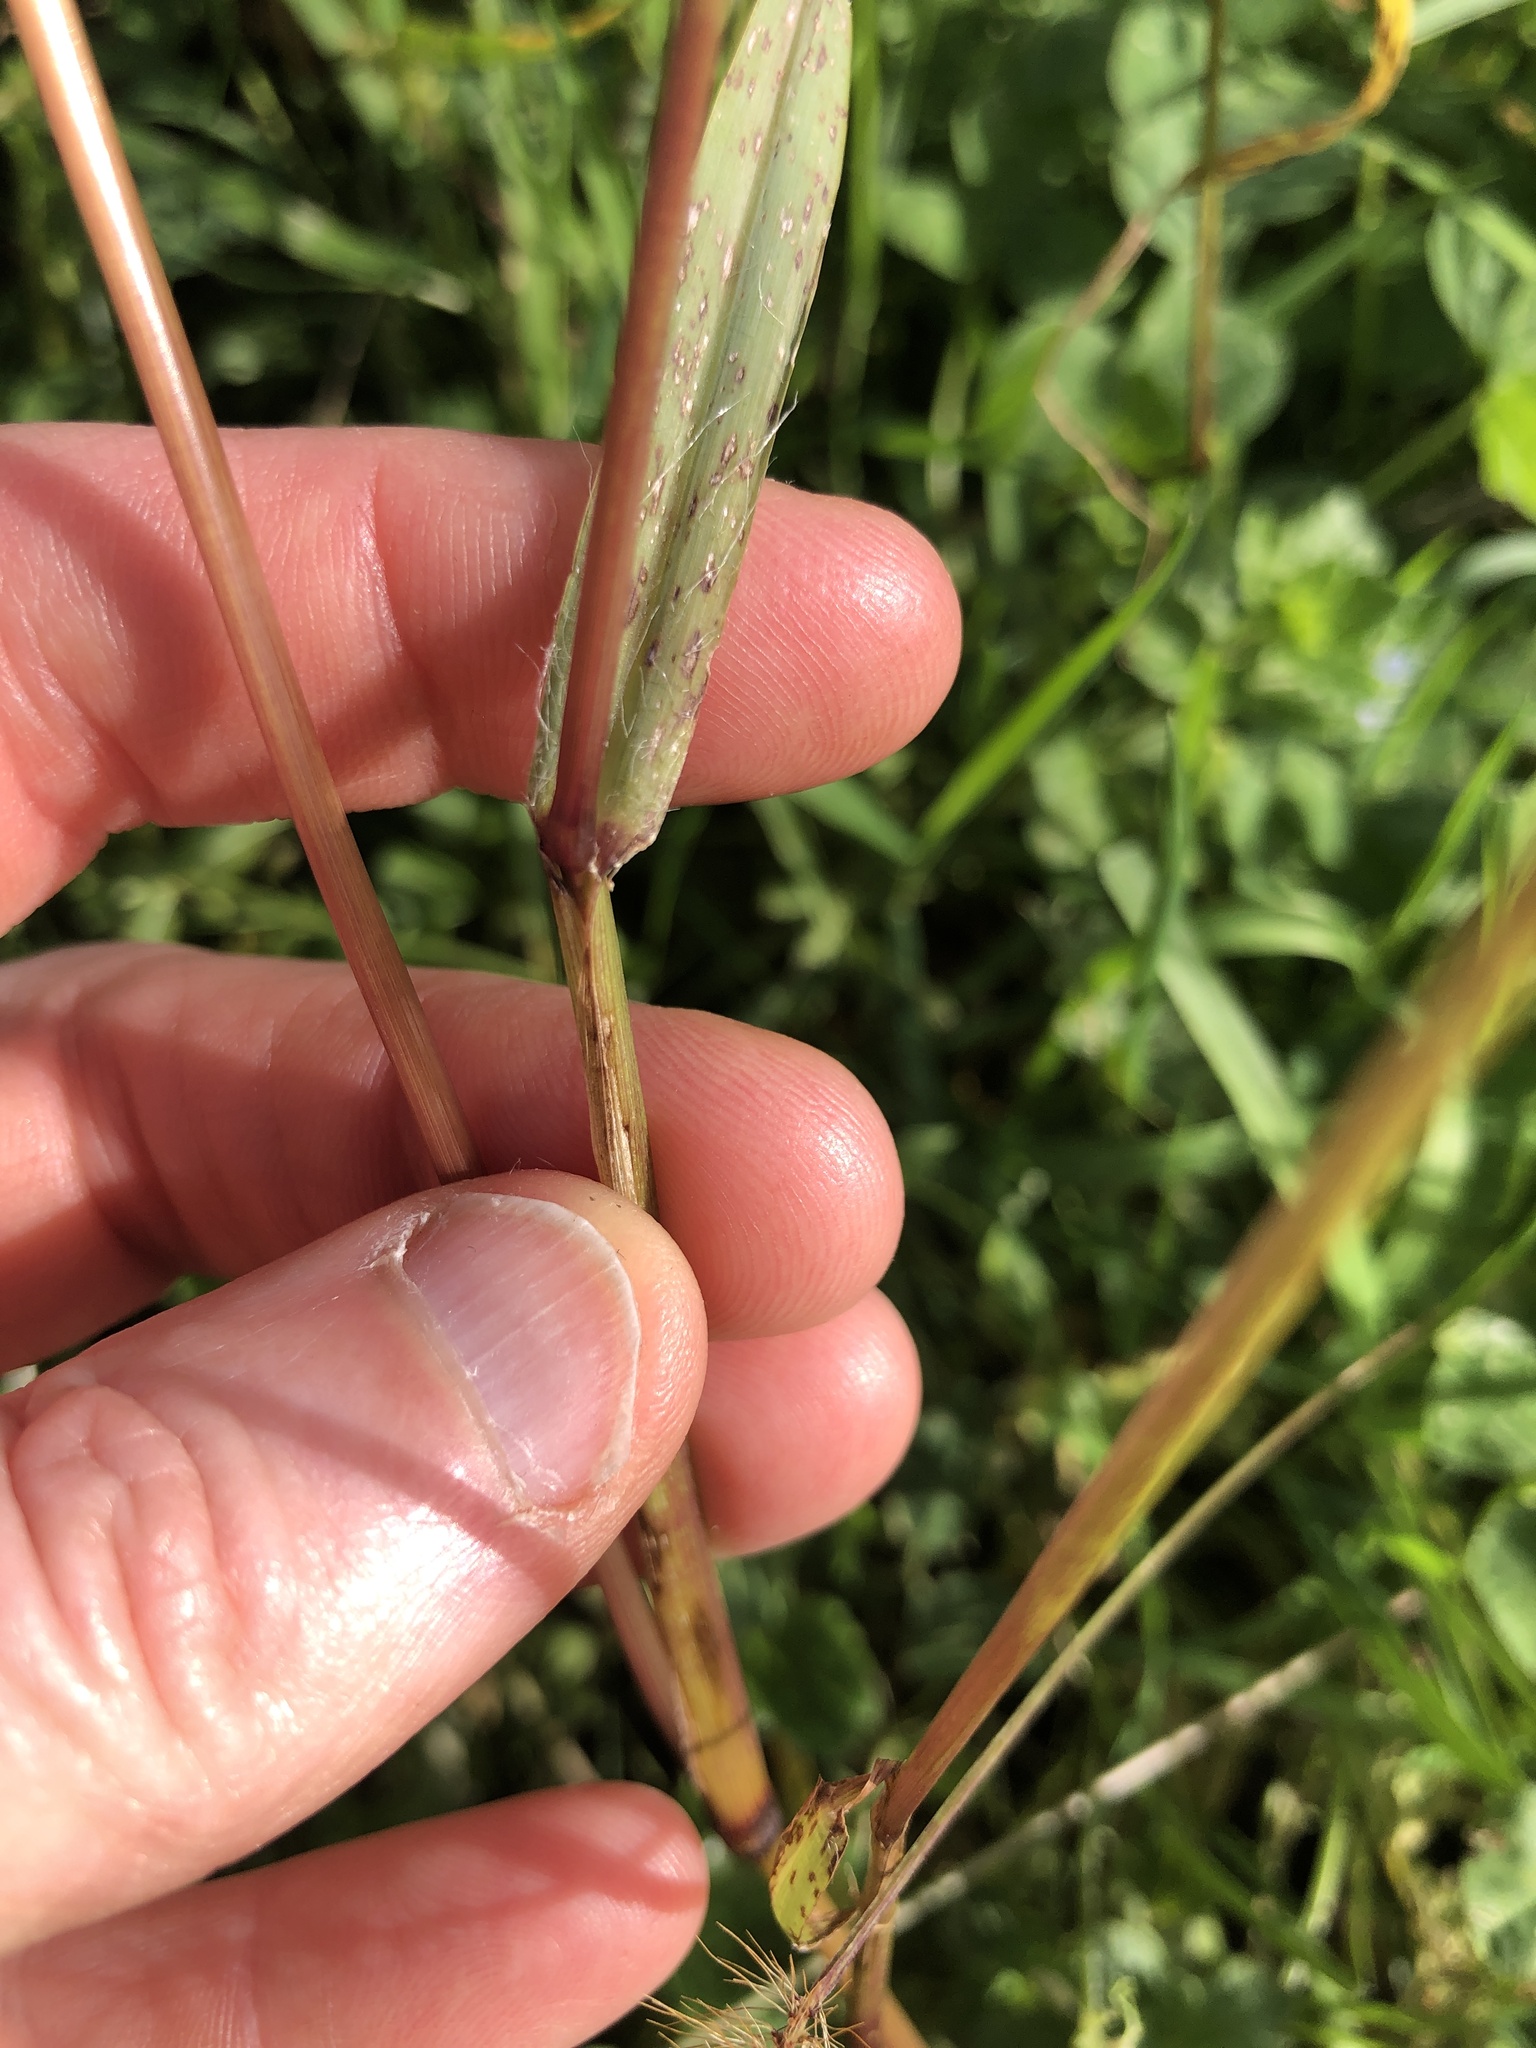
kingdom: Plantae
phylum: Tracheophyta
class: Liliopsida
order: Poales
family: Poaceae
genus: Setaria
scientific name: Setaria pumila
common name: Yellow bristle-grass
